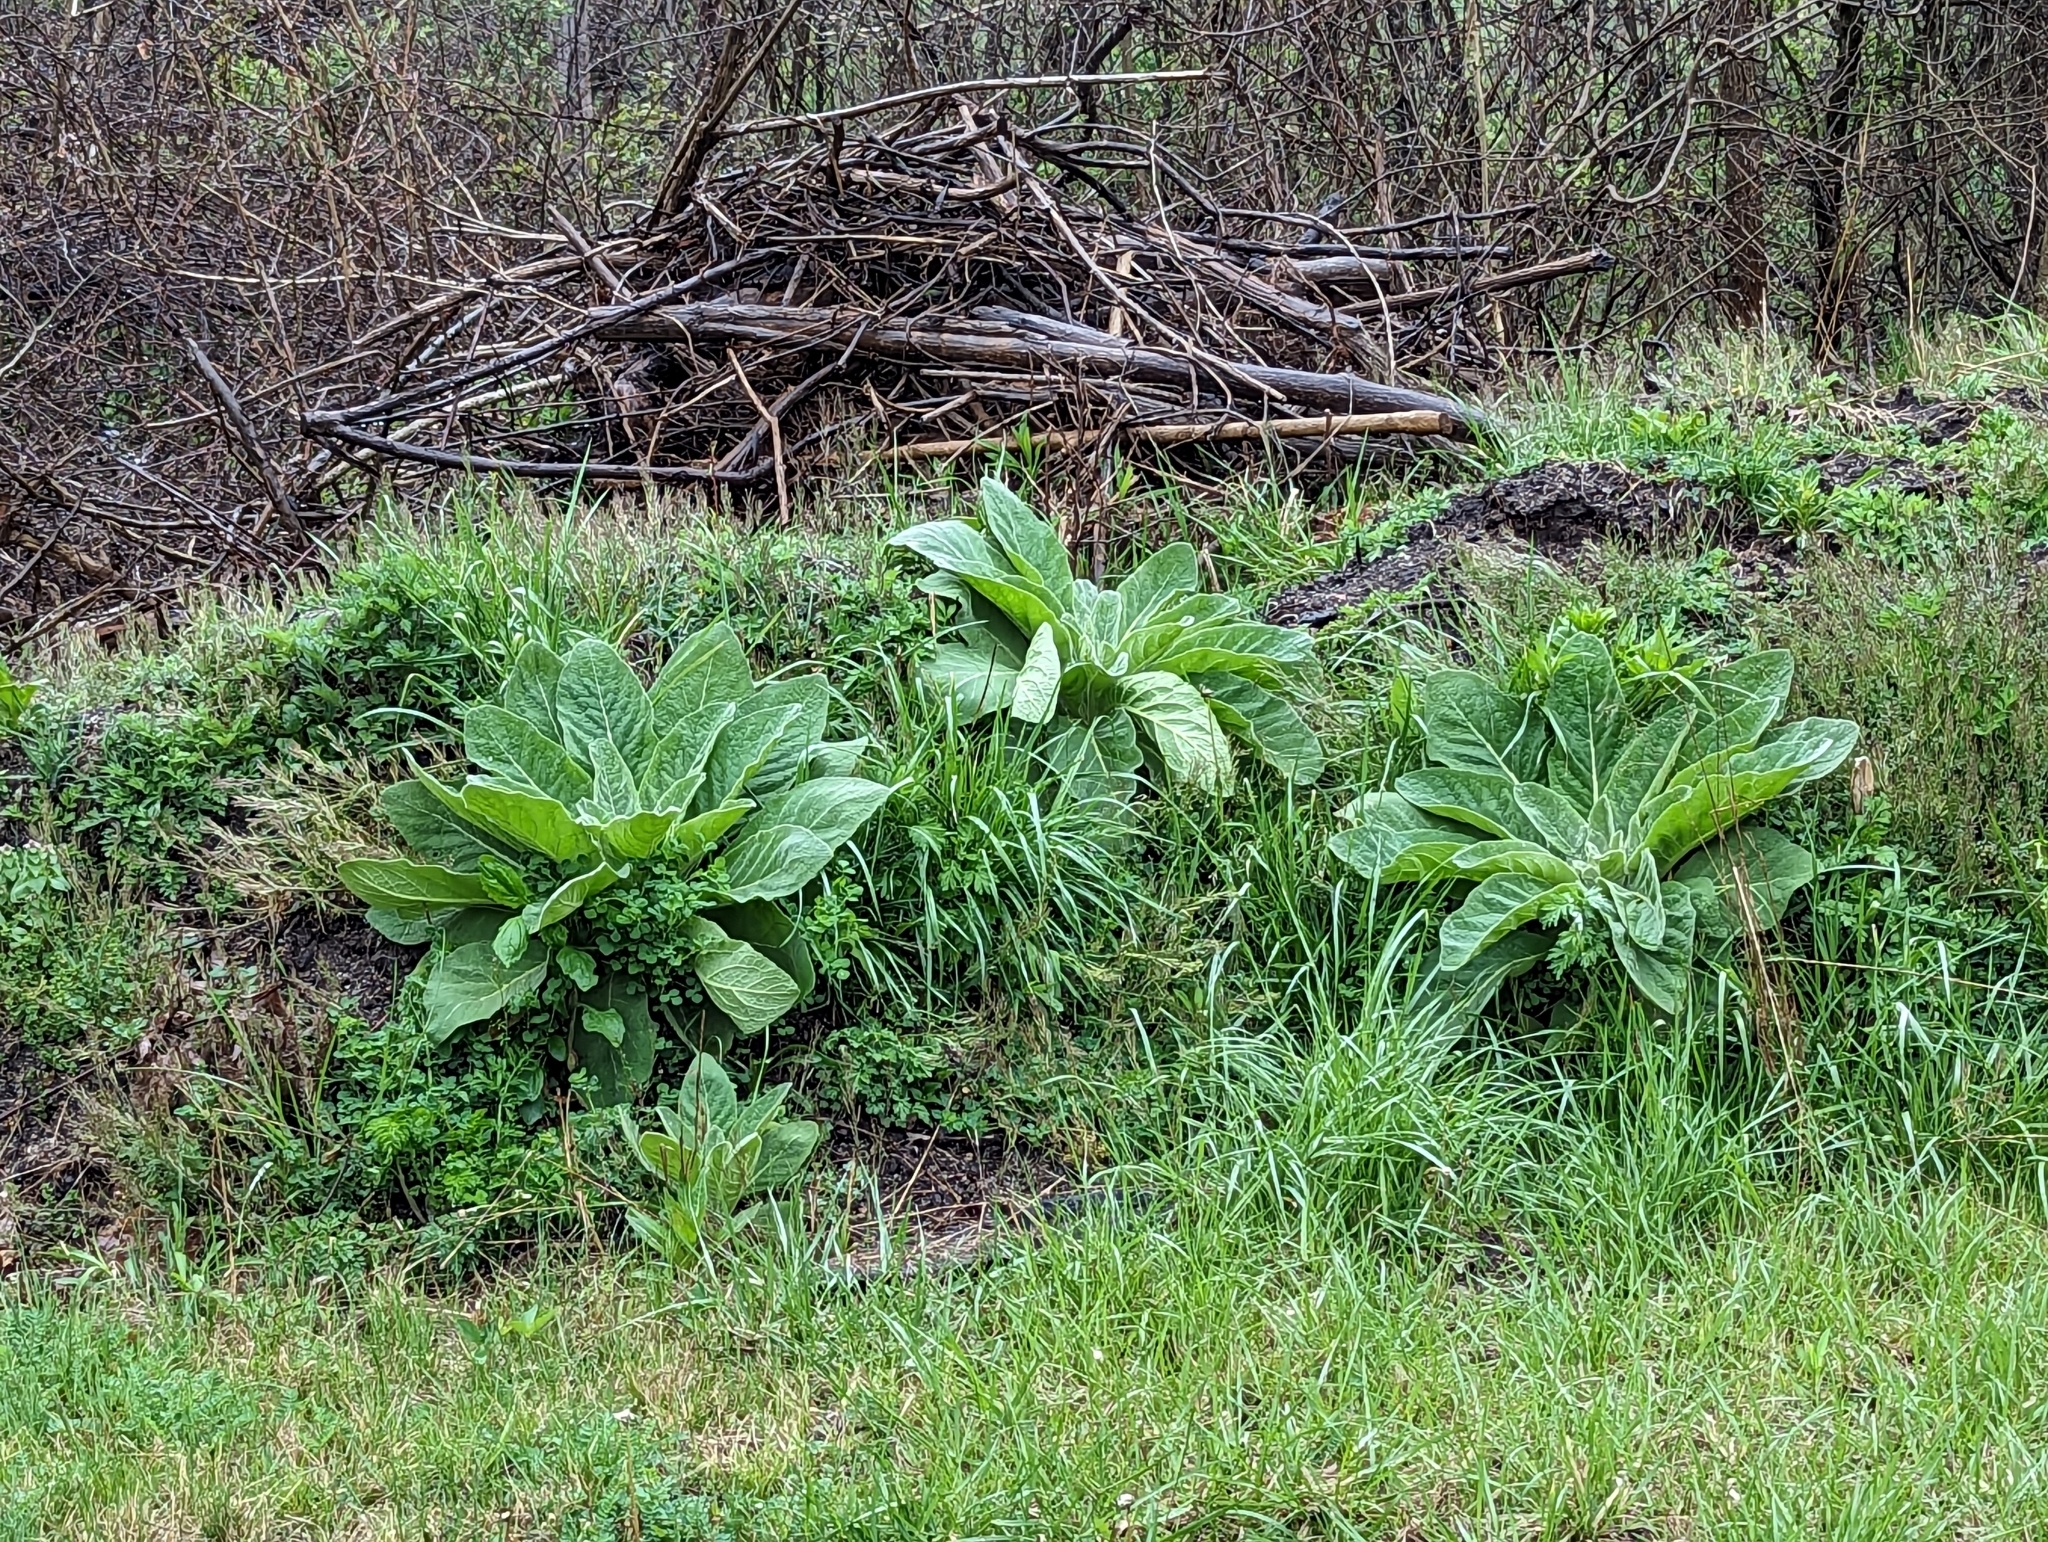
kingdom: Plantae
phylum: Tracheophyta
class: Magnoliopsida
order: Lamiales
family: Scrophulariaceae
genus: Verbascum
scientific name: Verbascum thapsus
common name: Common mullein
